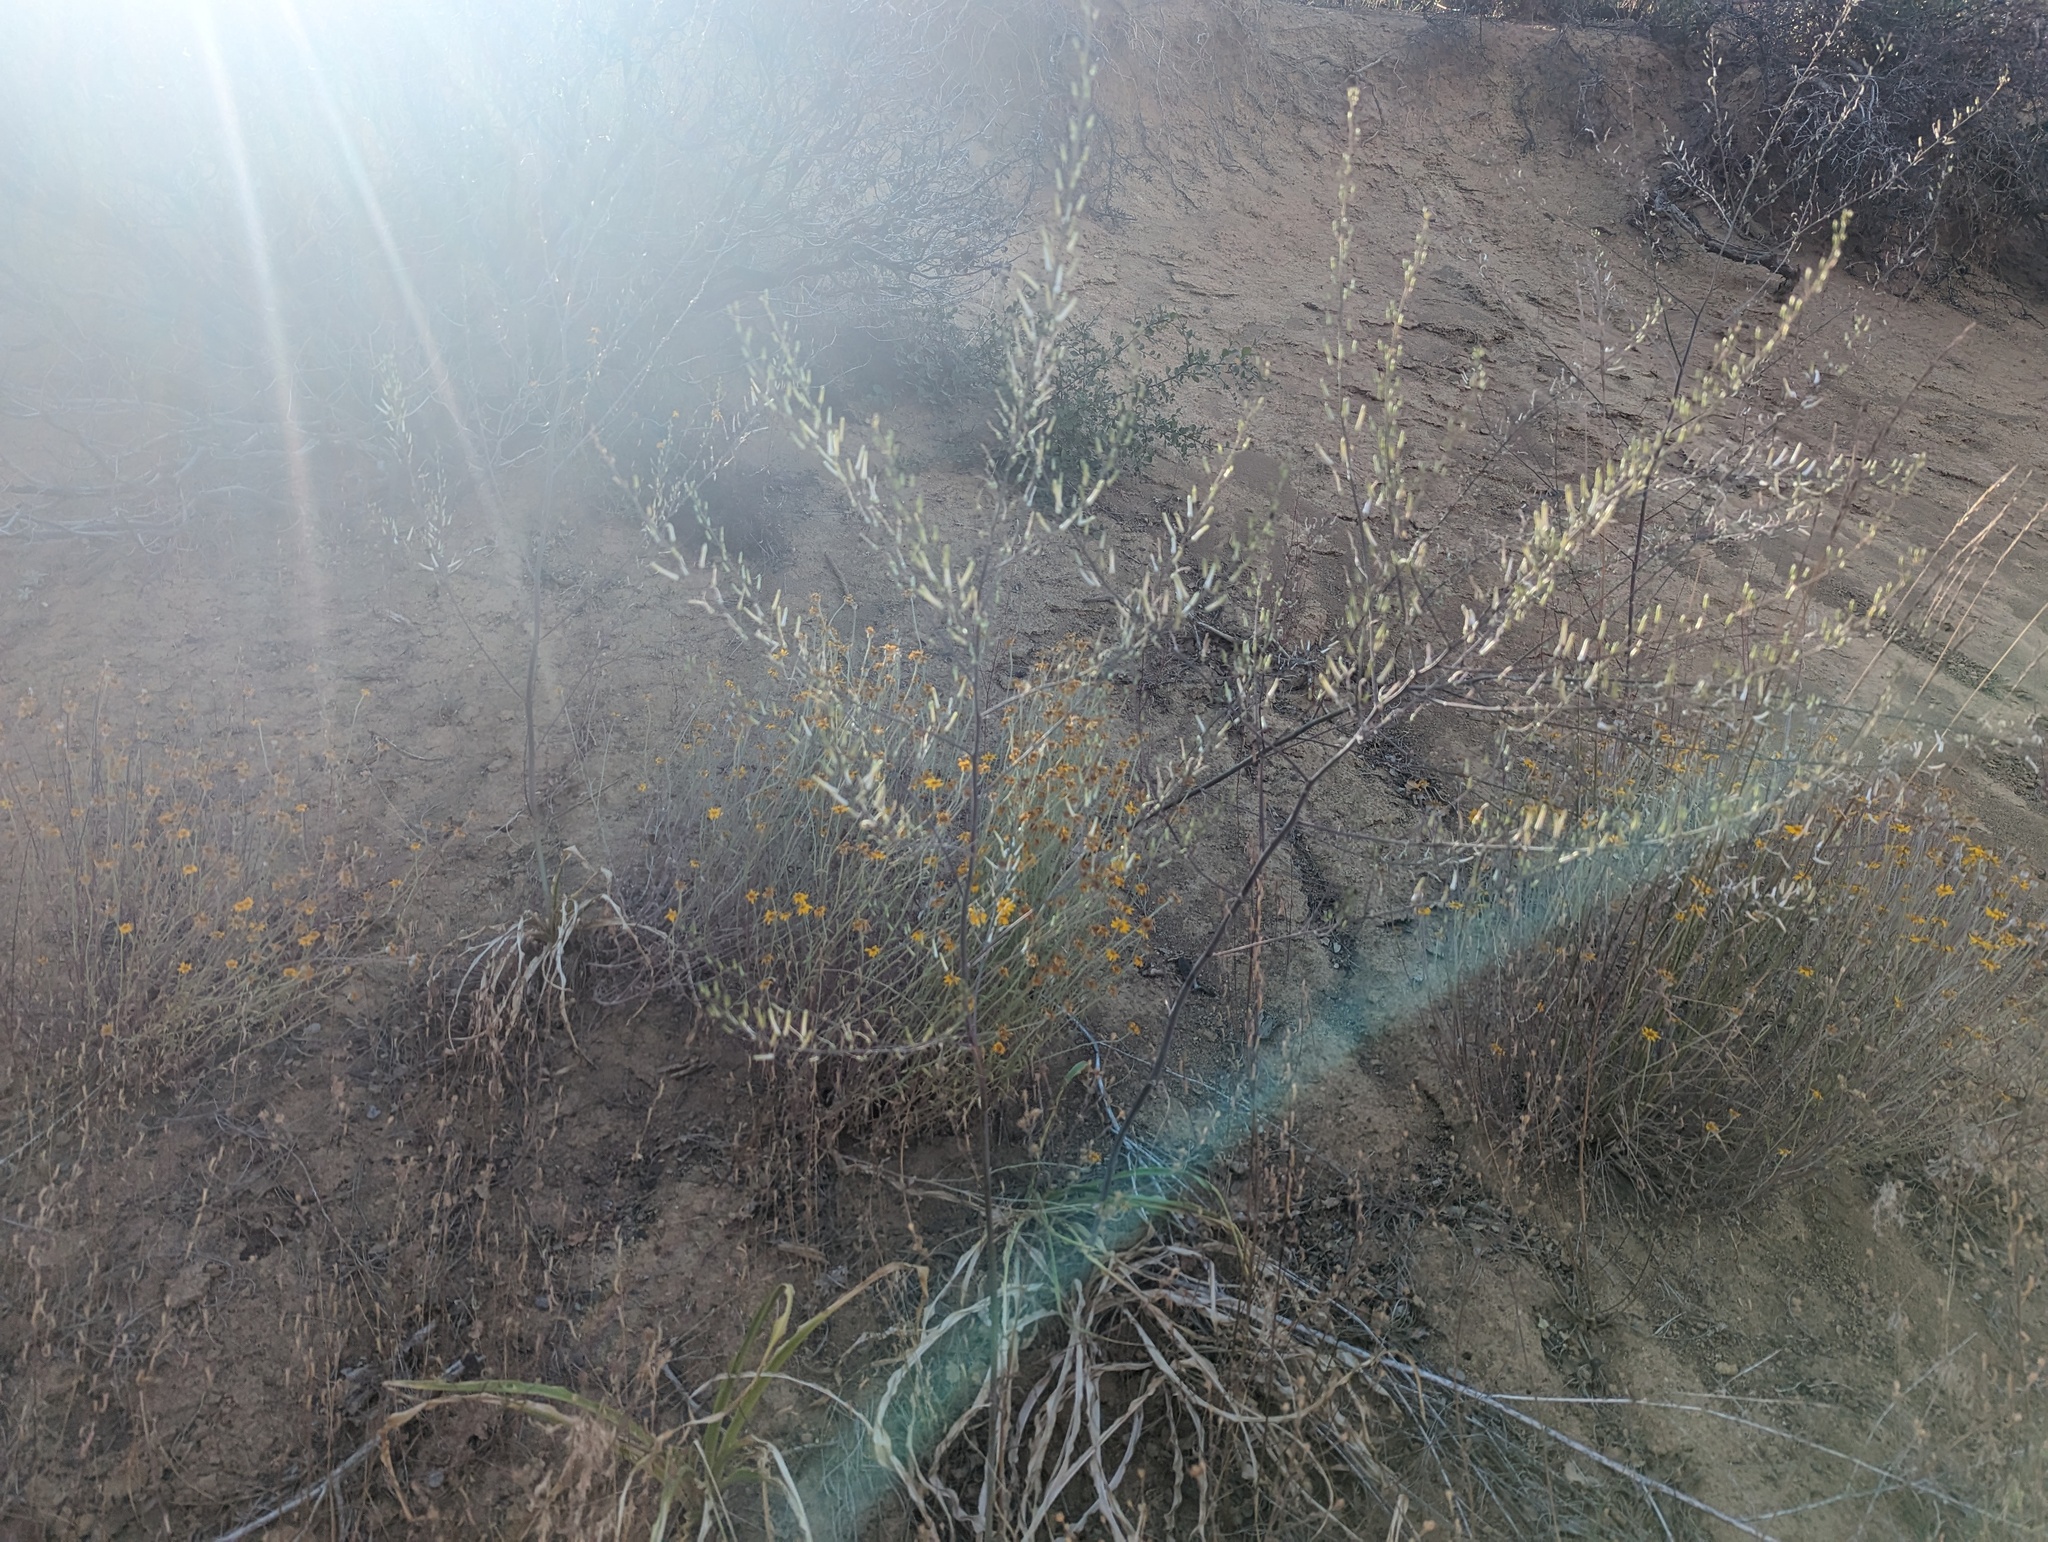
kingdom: Plantae
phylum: Tracheophyta
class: Liliopsida
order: Asparagales
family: Asparagaceae
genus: Chlorogalum
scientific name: Chlorogalum pomeridianum
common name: Amole
